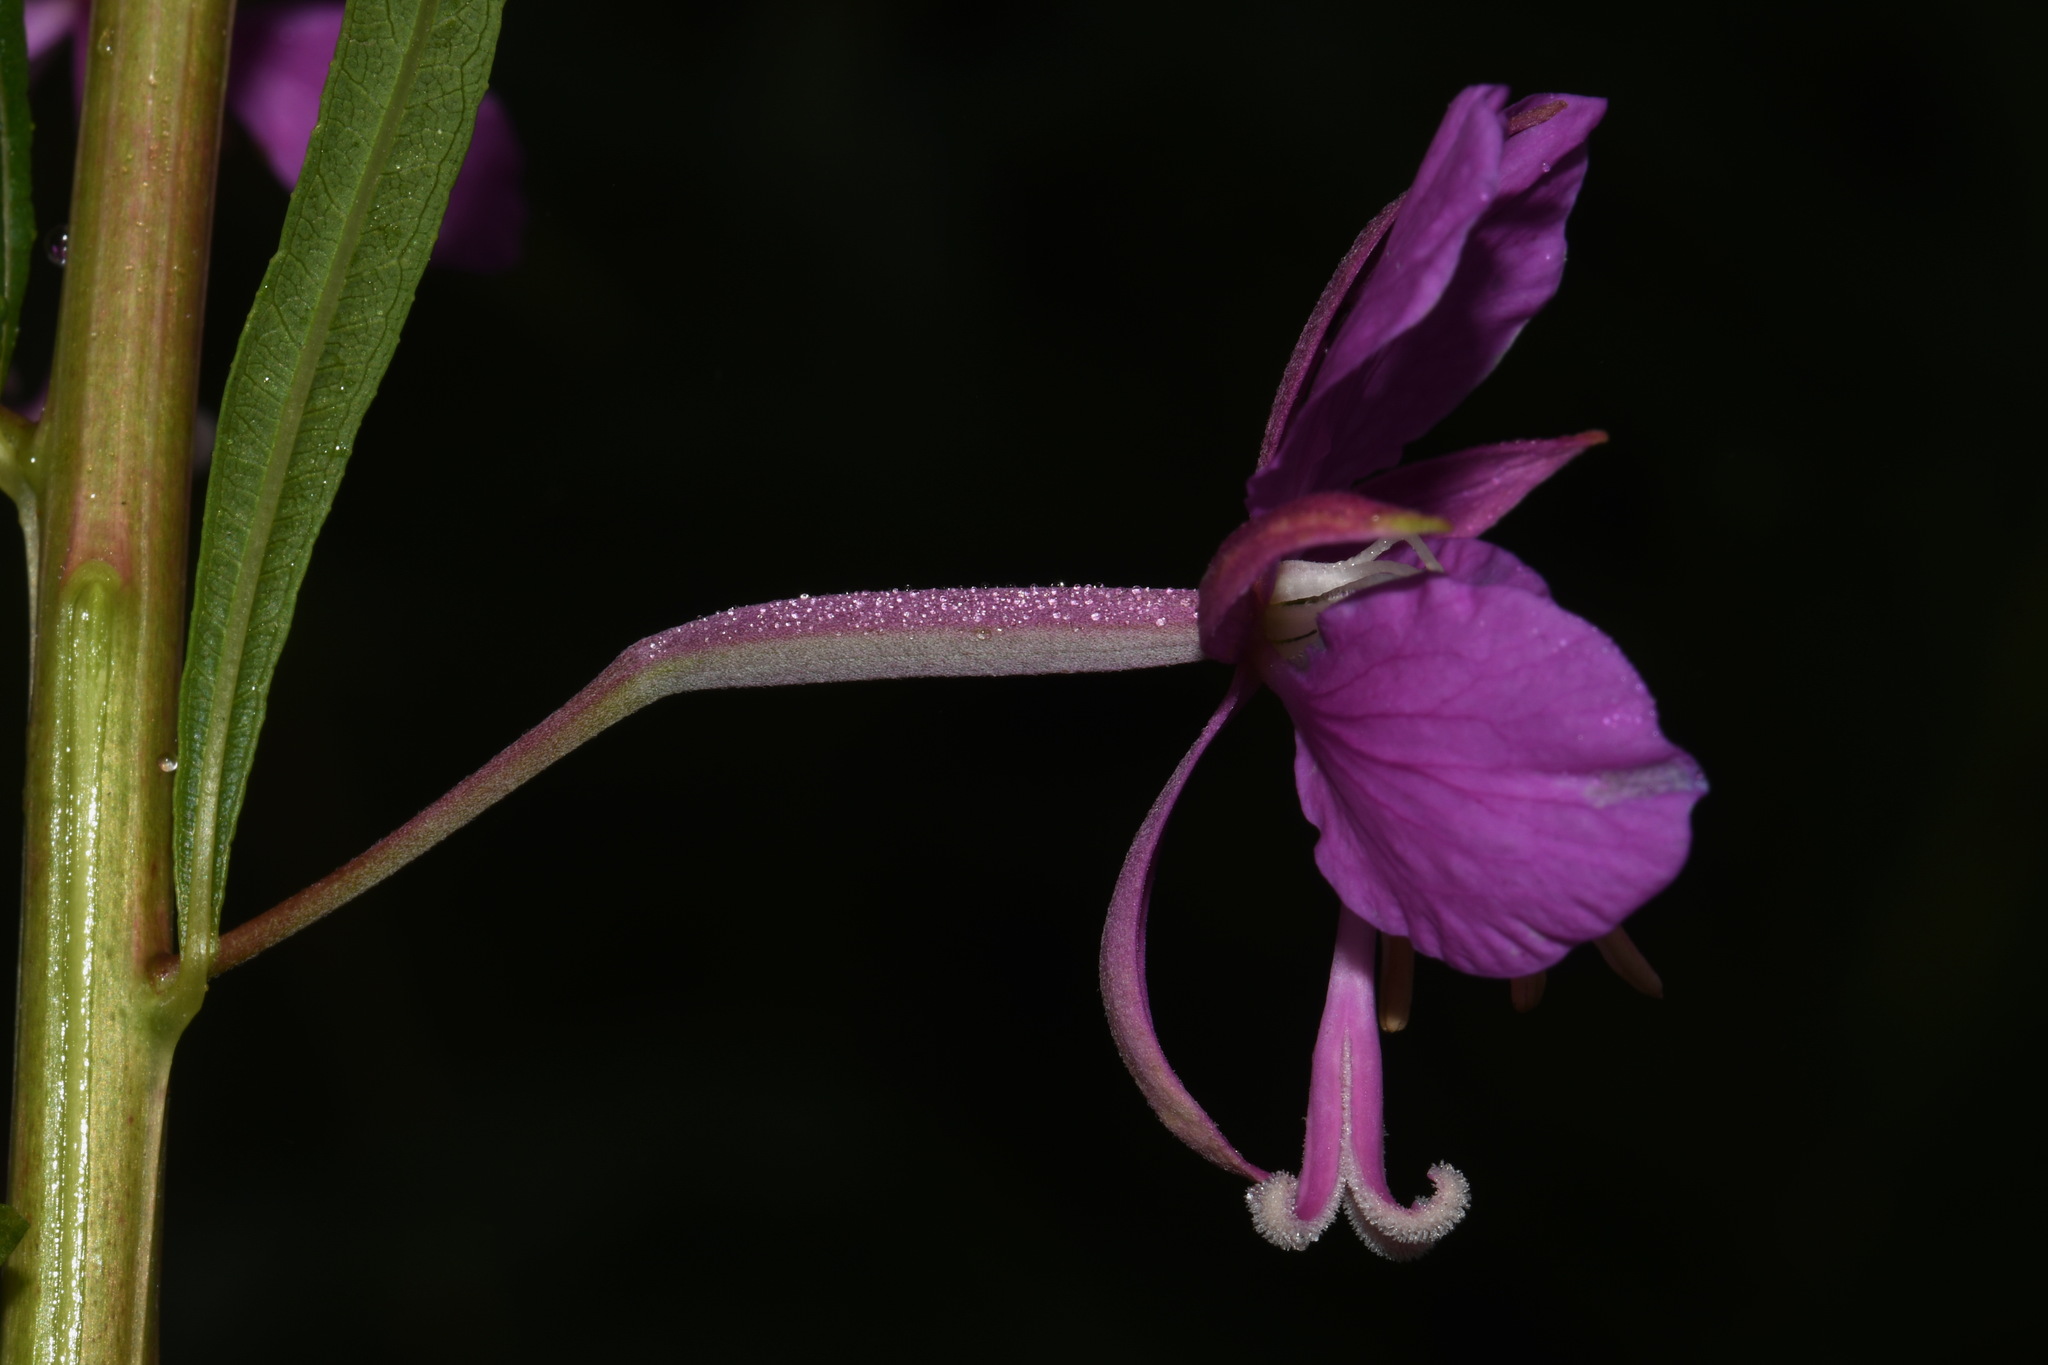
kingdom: Plantae
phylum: Tracheophyta
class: Magnoliopsida
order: Myrtales
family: Onagraceae
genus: Chamaenerion
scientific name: Chamaenerion angustifolium
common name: Fireweed
